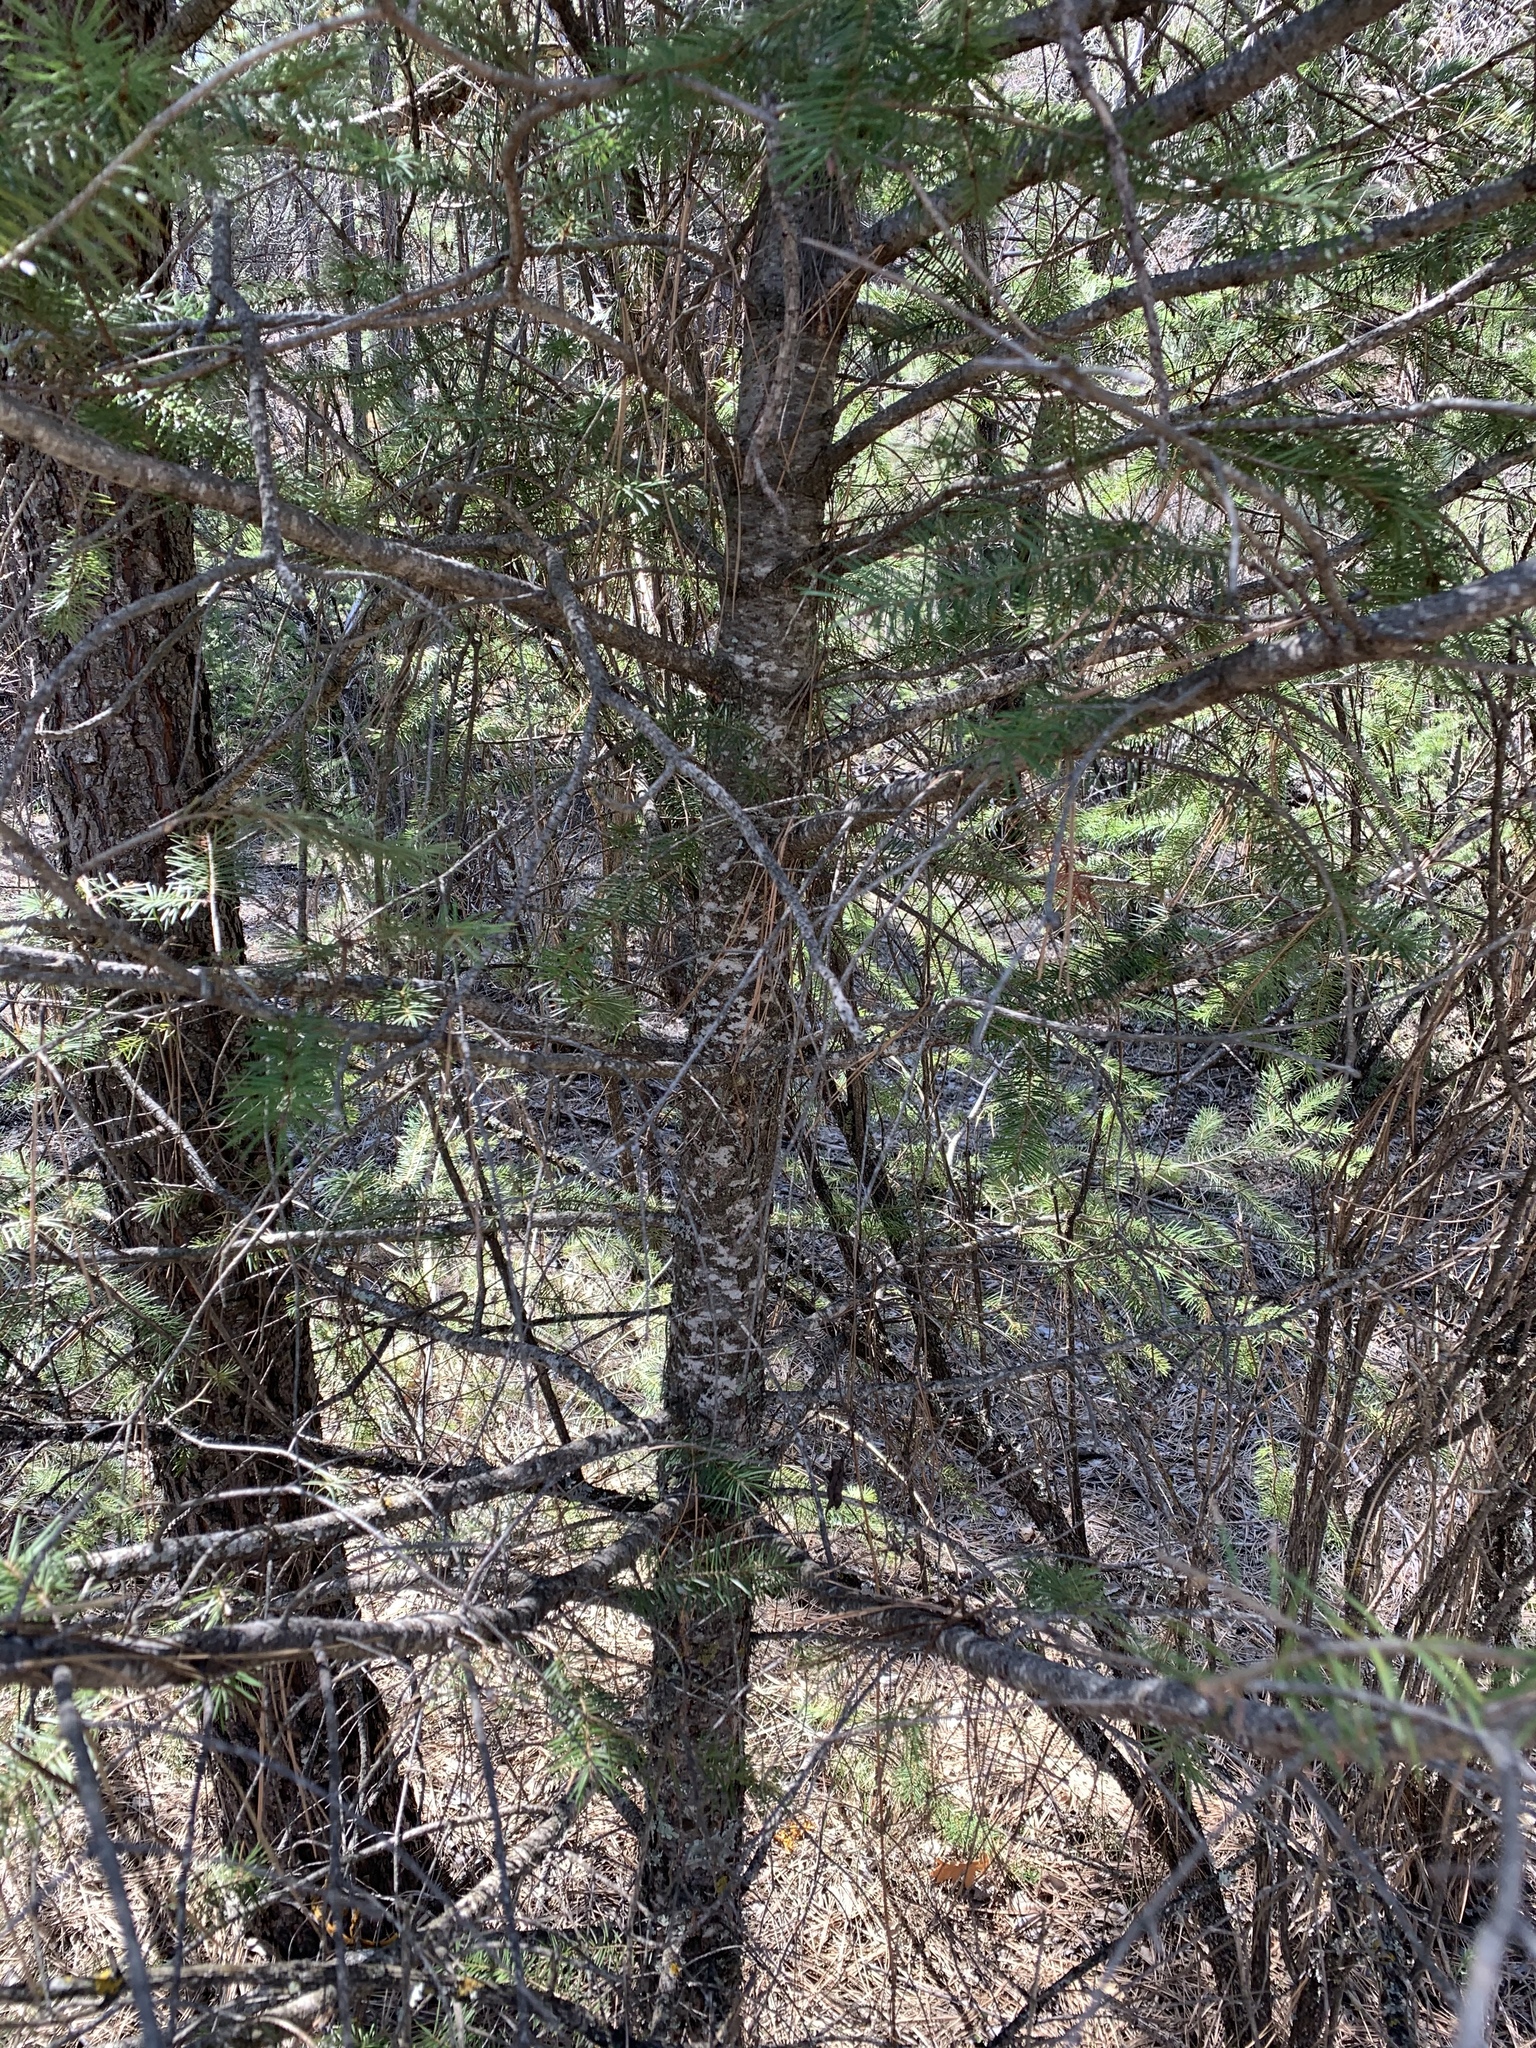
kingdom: Plantae
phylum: Tracheophyta
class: Pinopsida
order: Pinales
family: Pinaceae
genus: Pseudotsuga
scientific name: Pseudotsuga menziesii
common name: Douglas fir
